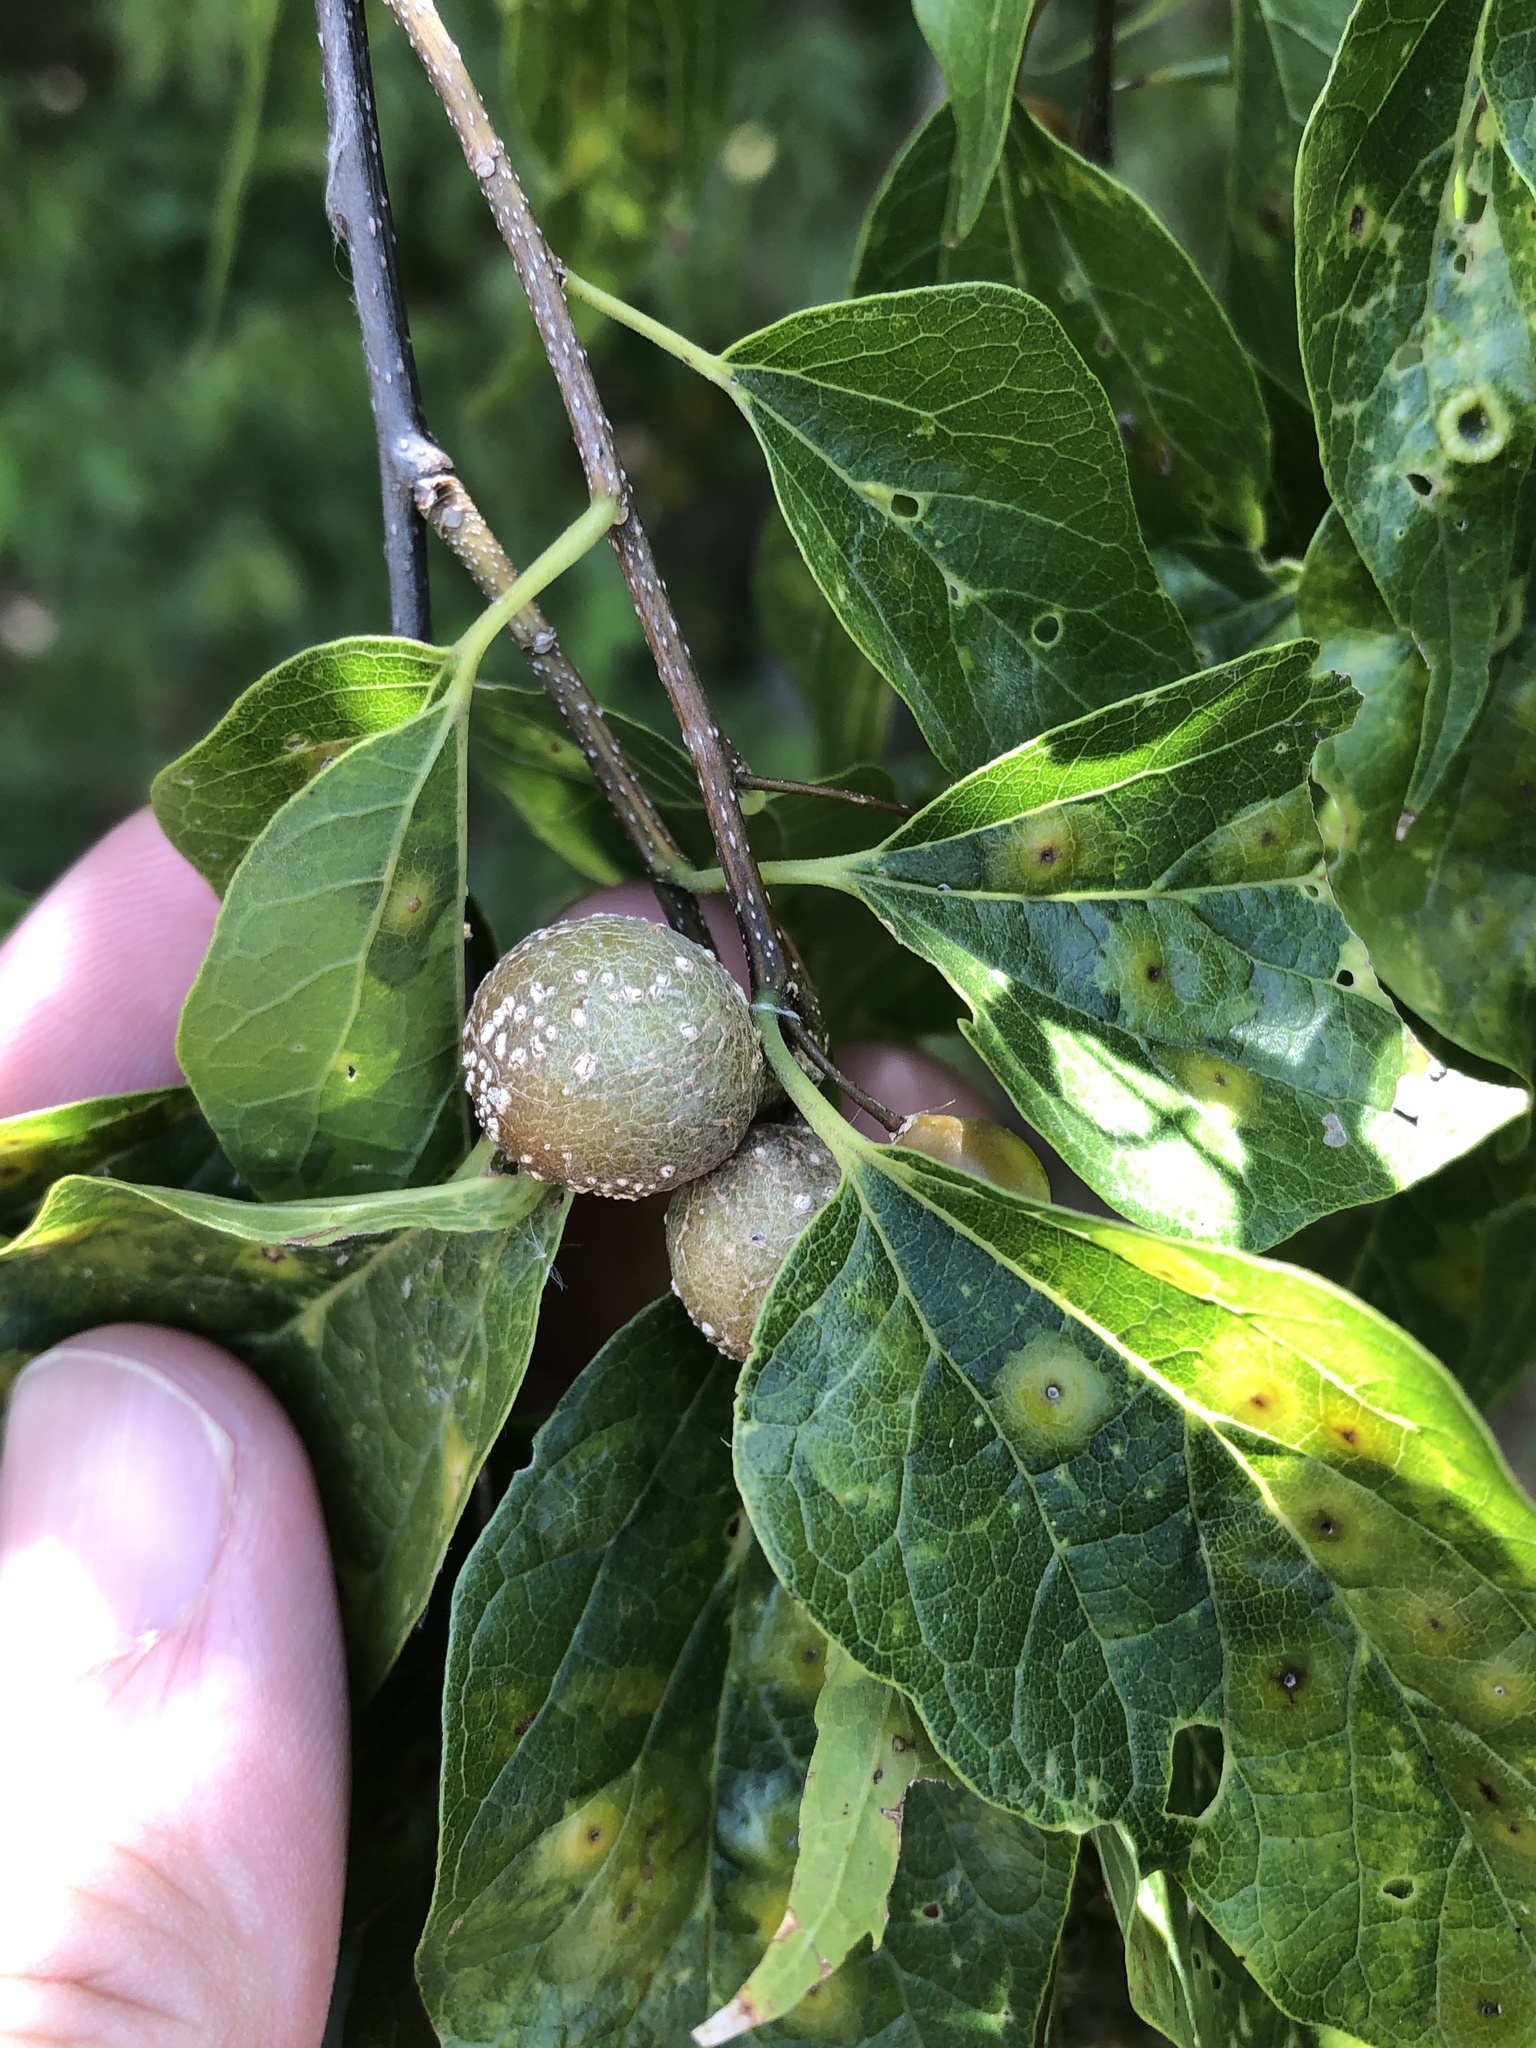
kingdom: Animalia
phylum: Arthropoda
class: Insecta
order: Hemiptera
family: Aphalaridae
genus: Pachypsylla
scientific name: Pachypsylla venusta
